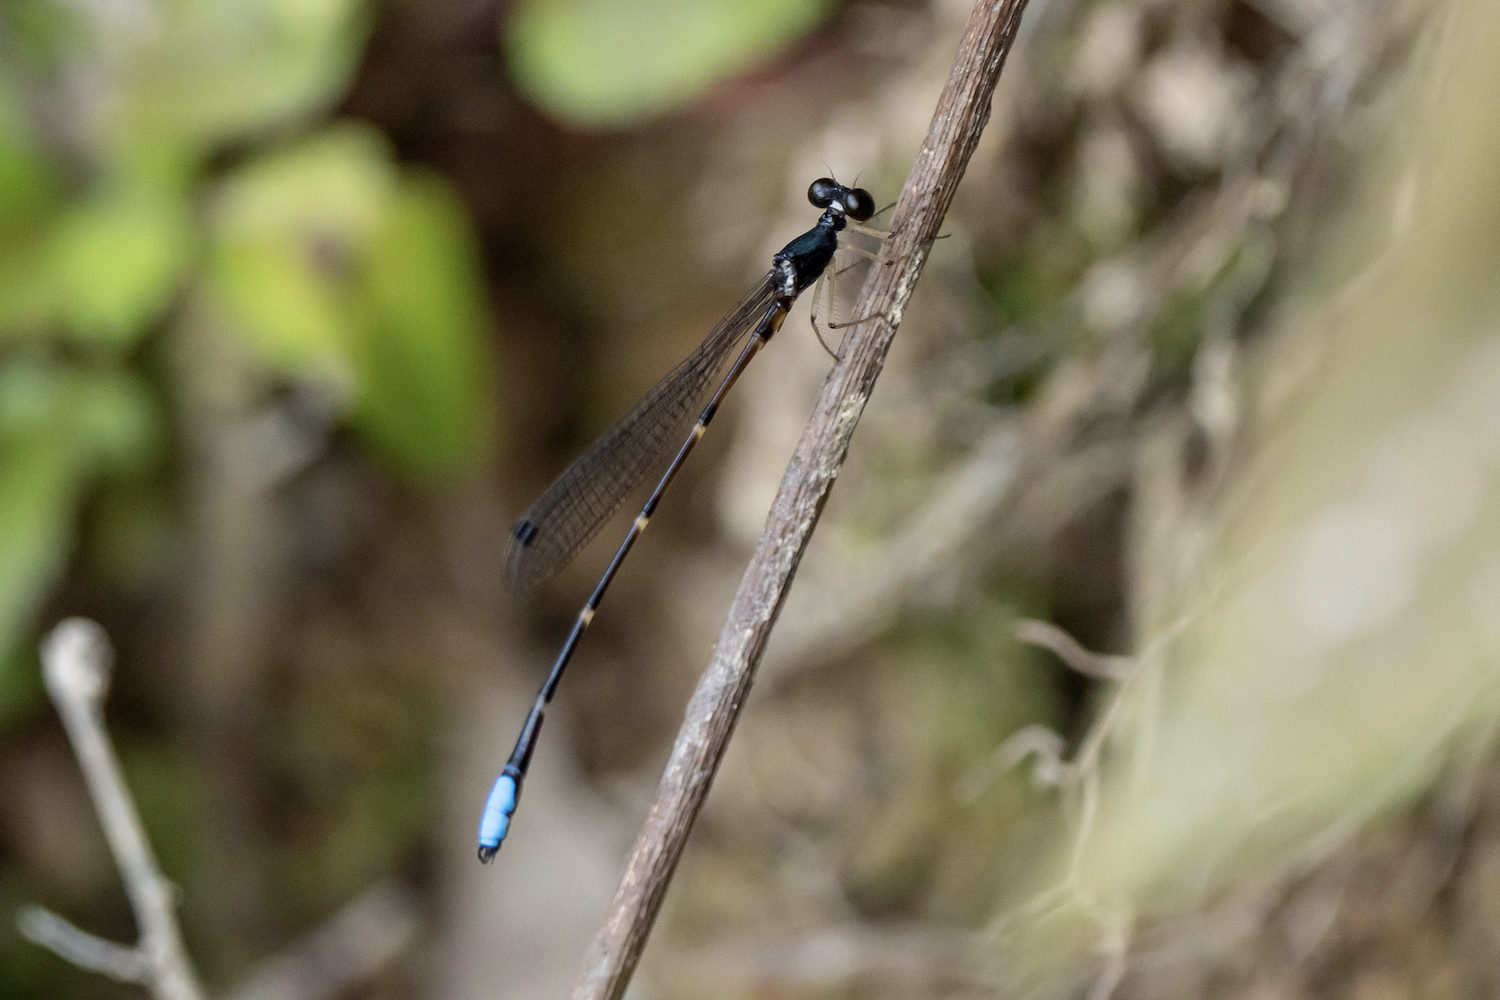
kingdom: Animalia
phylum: Arthropoda
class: Insecta
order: Odonata
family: Platystictidae
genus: Drepanosticta
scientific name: Drepanosticta hongkongensis
